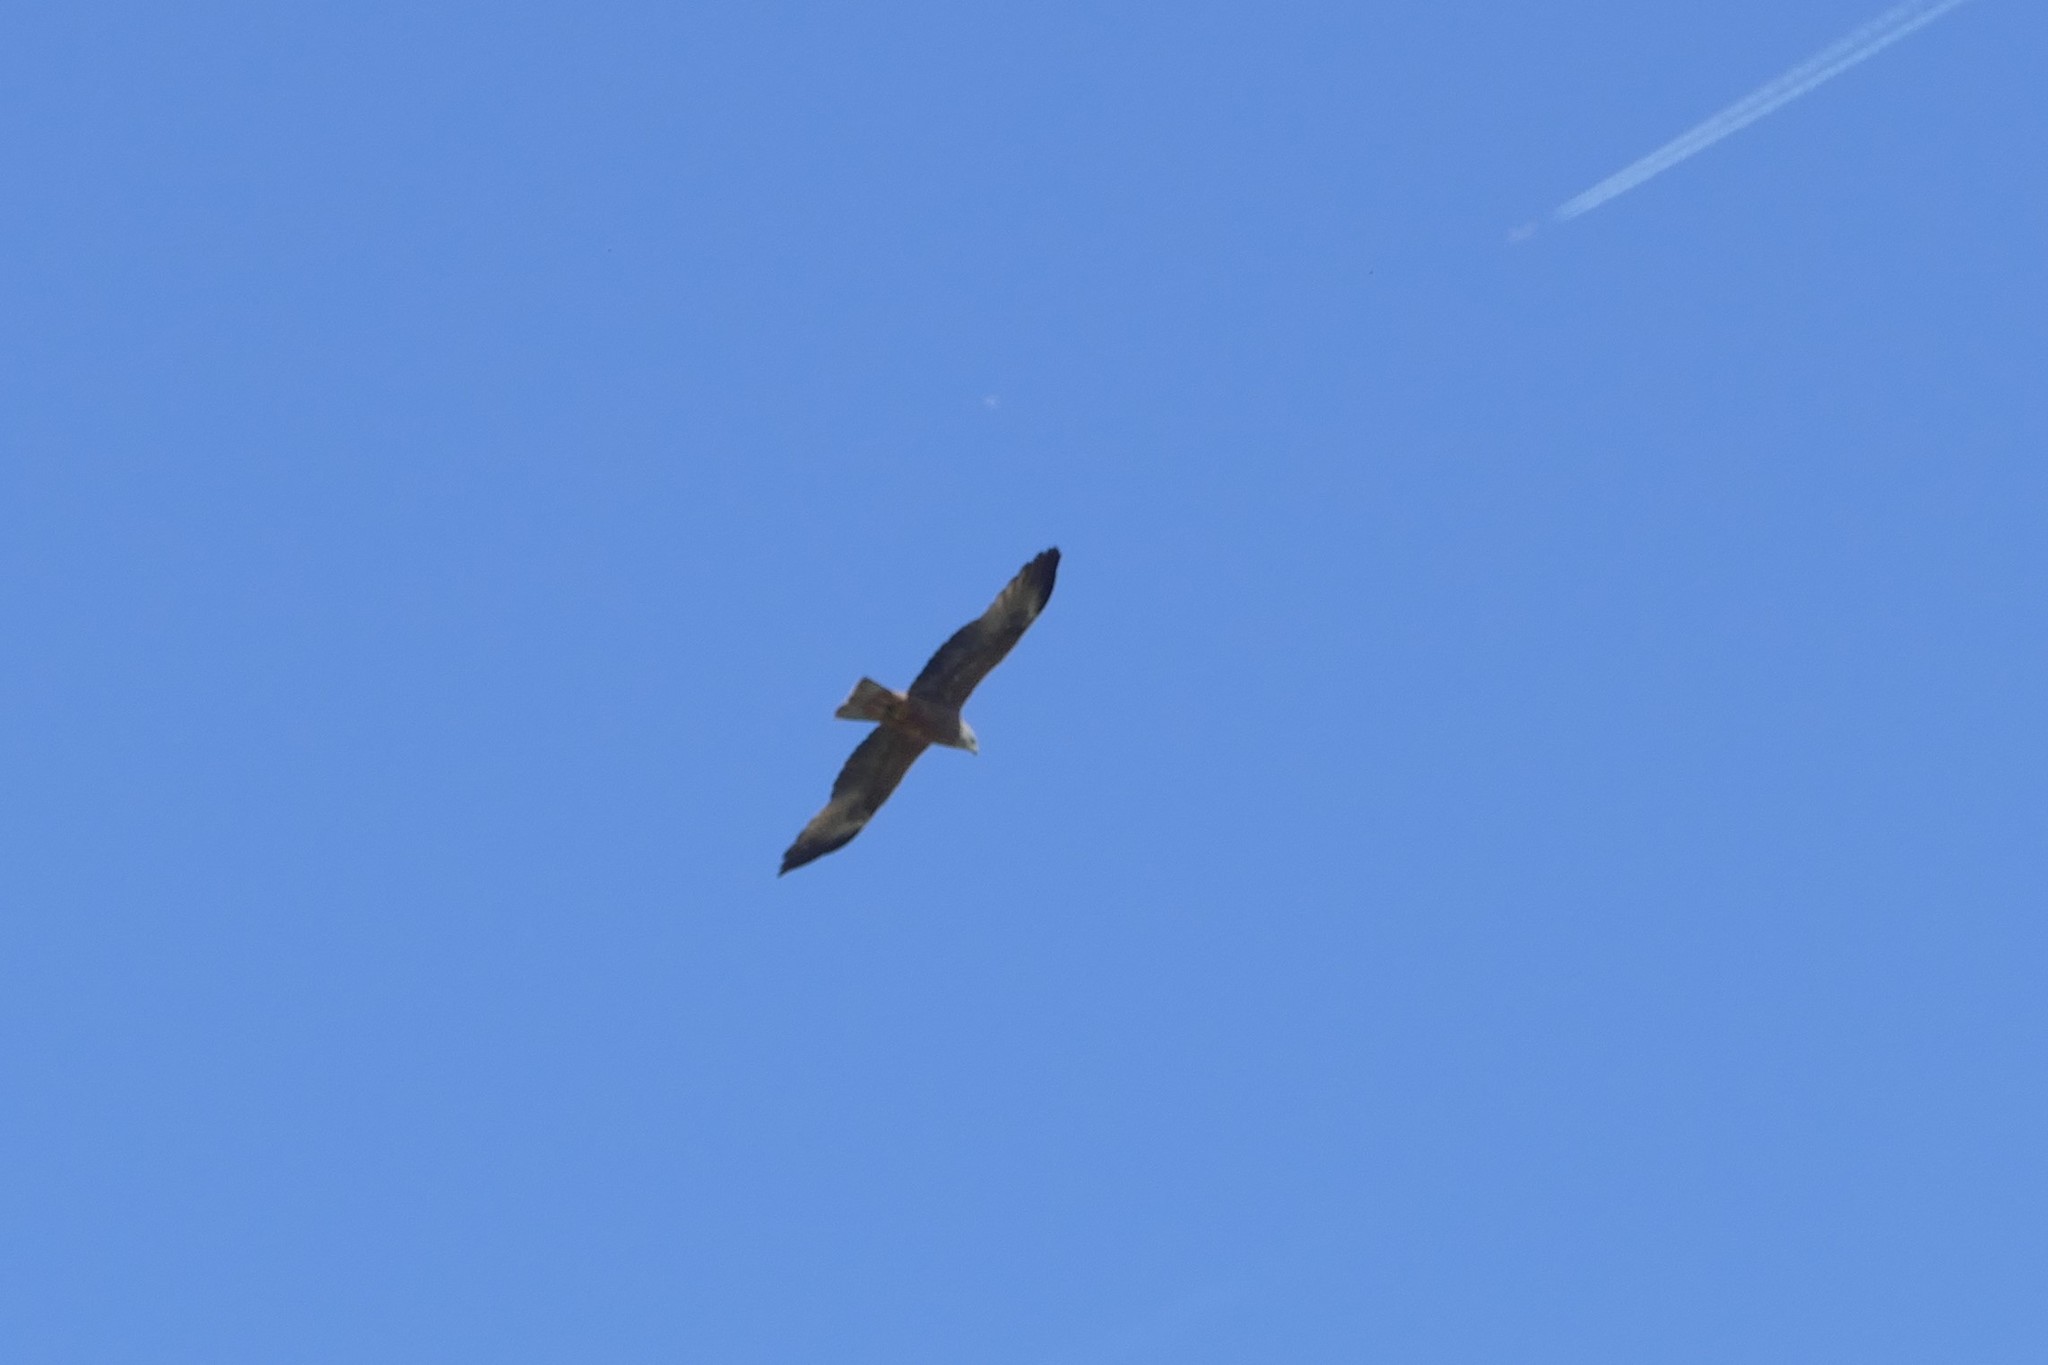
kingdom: Animalia
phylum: Chordata
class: Aves
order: Accipitriformes
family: Accipitridae
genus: Milvus
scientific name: Milvus migrans
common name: Black kite
